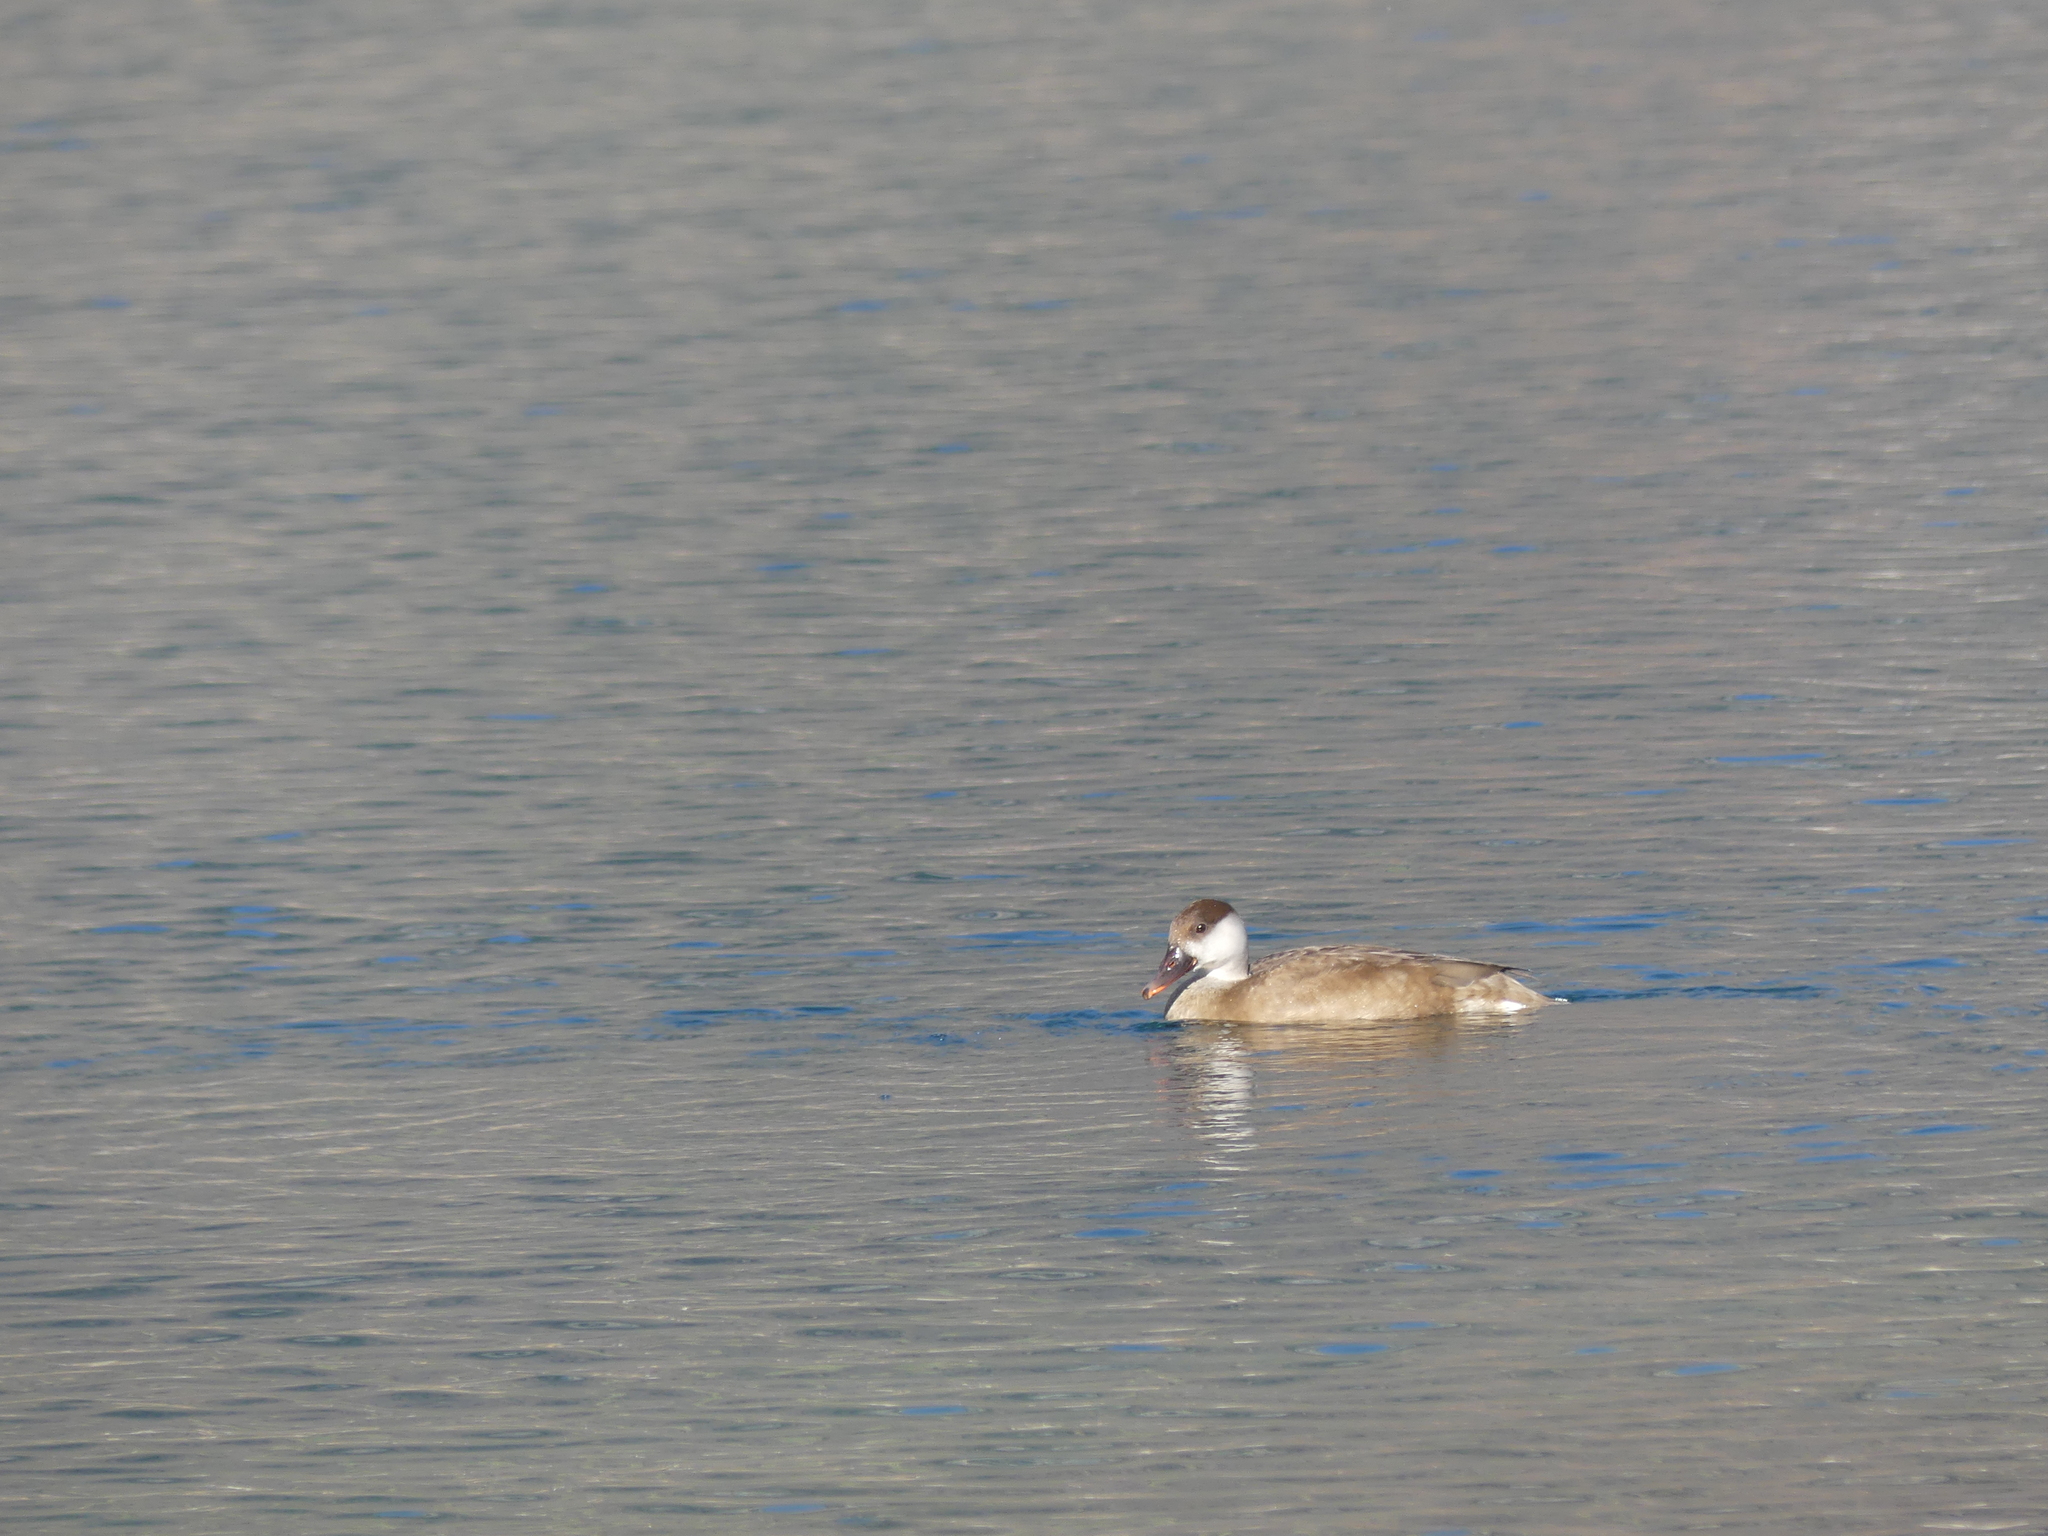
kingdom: Animalia
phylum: Chordata
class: Aves
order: Anseriformes
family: Anatidae
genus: Netta
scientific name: Netta rufina
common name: Red-crested pochard
